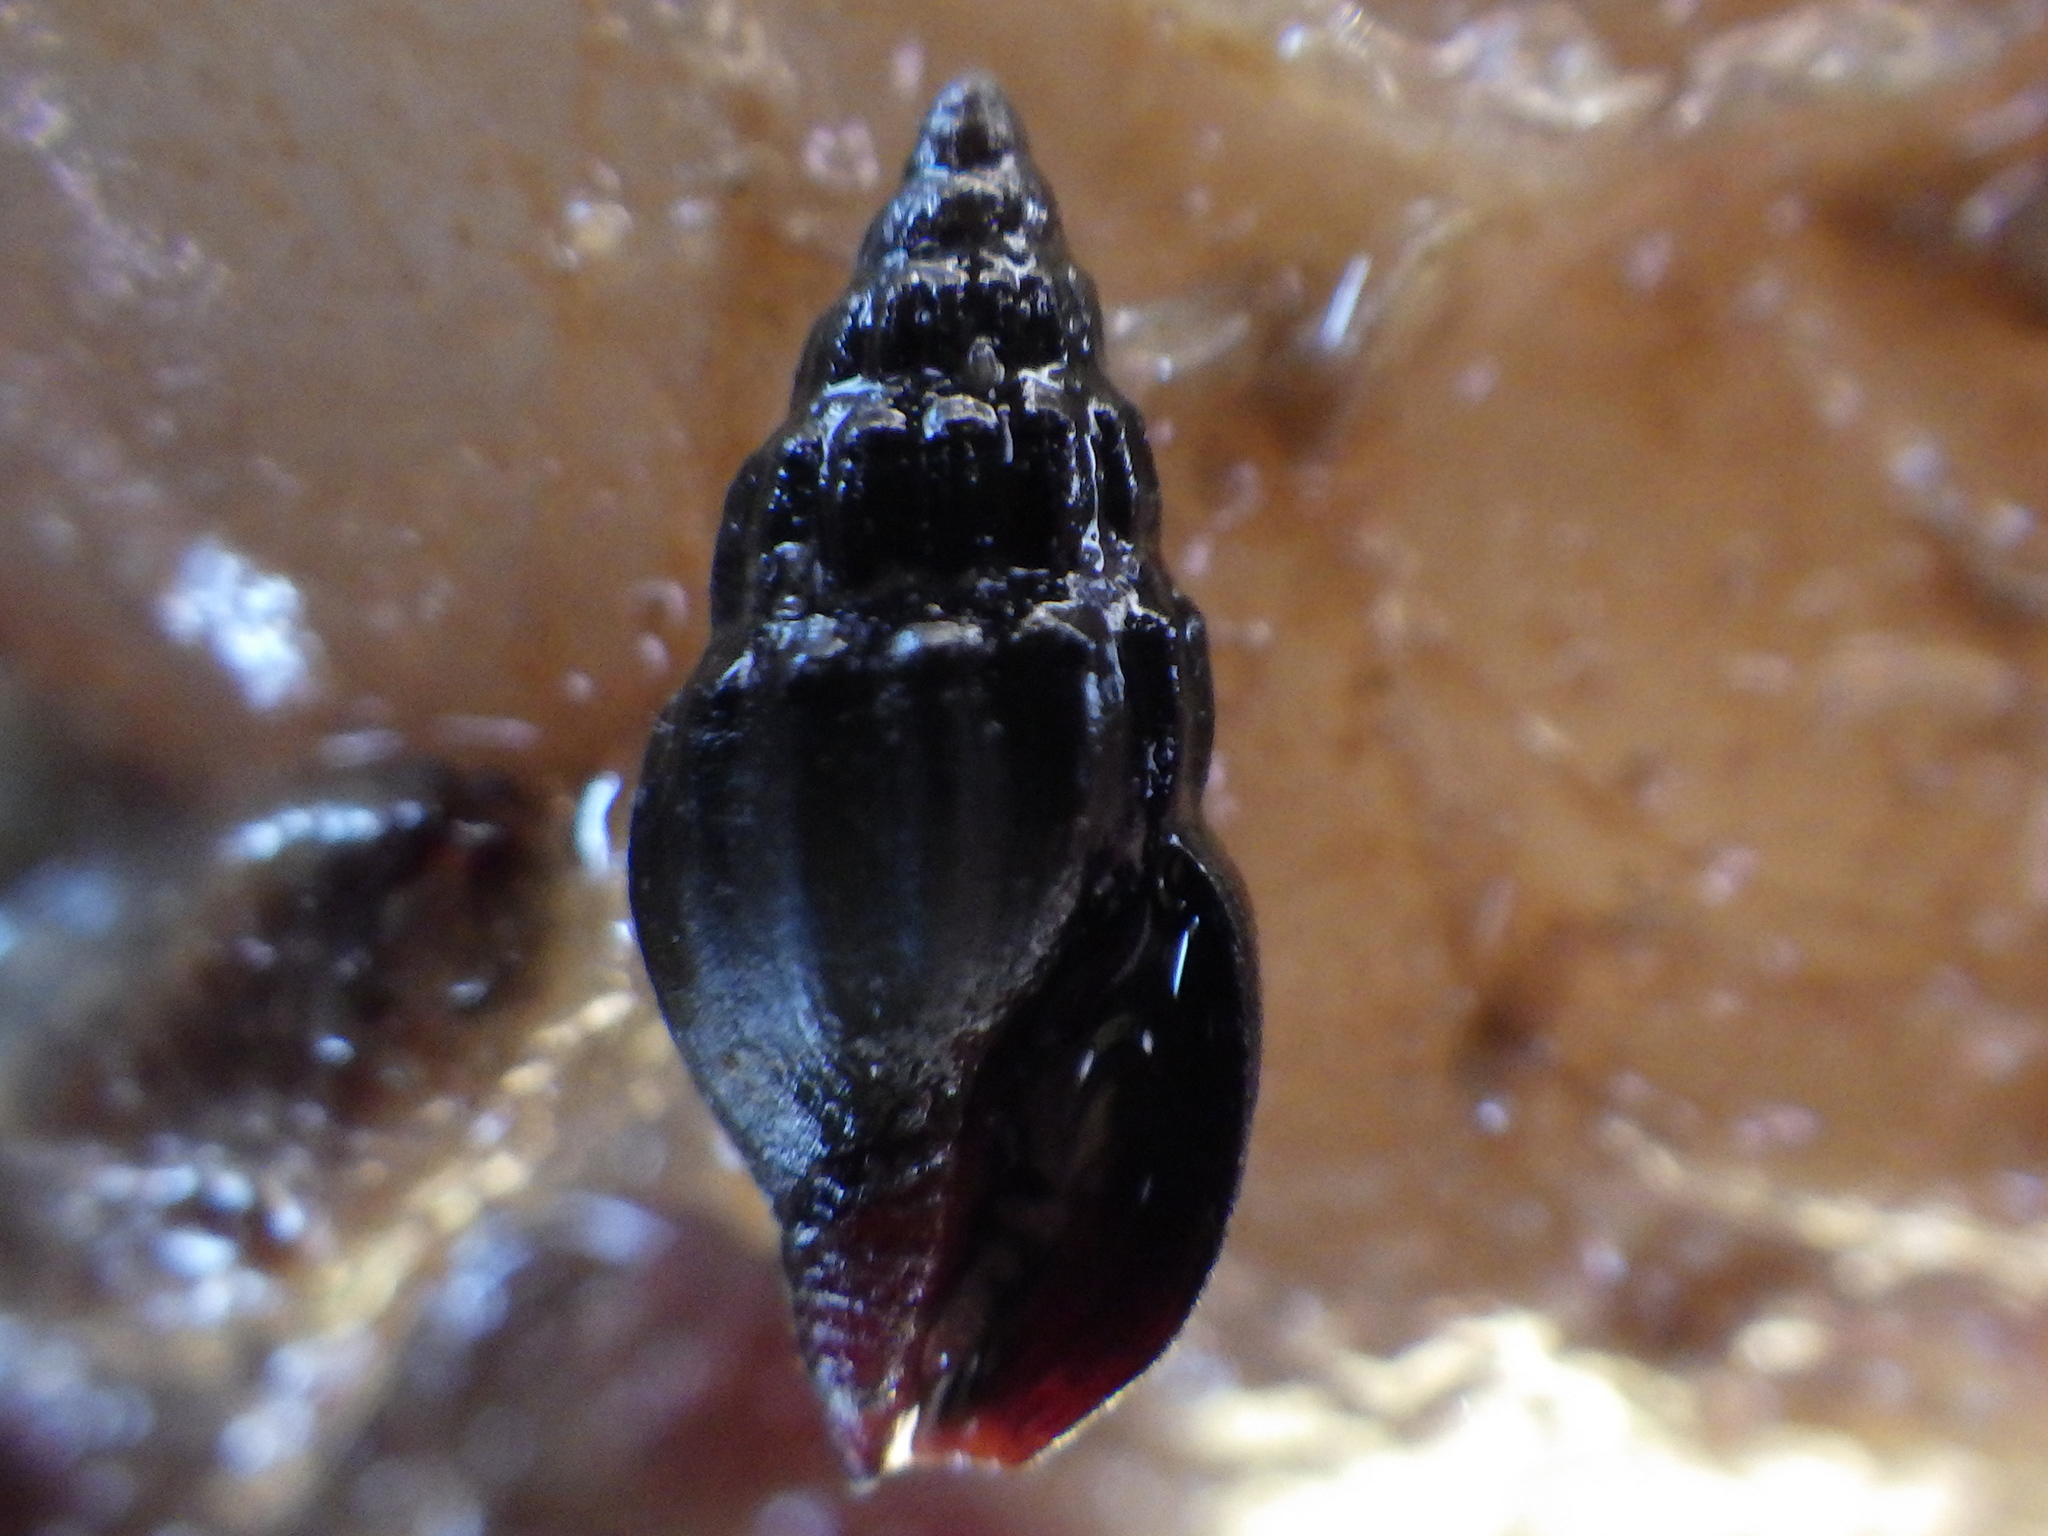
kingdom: Animalia
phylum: Mollusca
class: Gastropoda
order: Neogastropoda
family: Costellariidae
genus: Austromitra
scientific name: Austromitra rubiginosa
